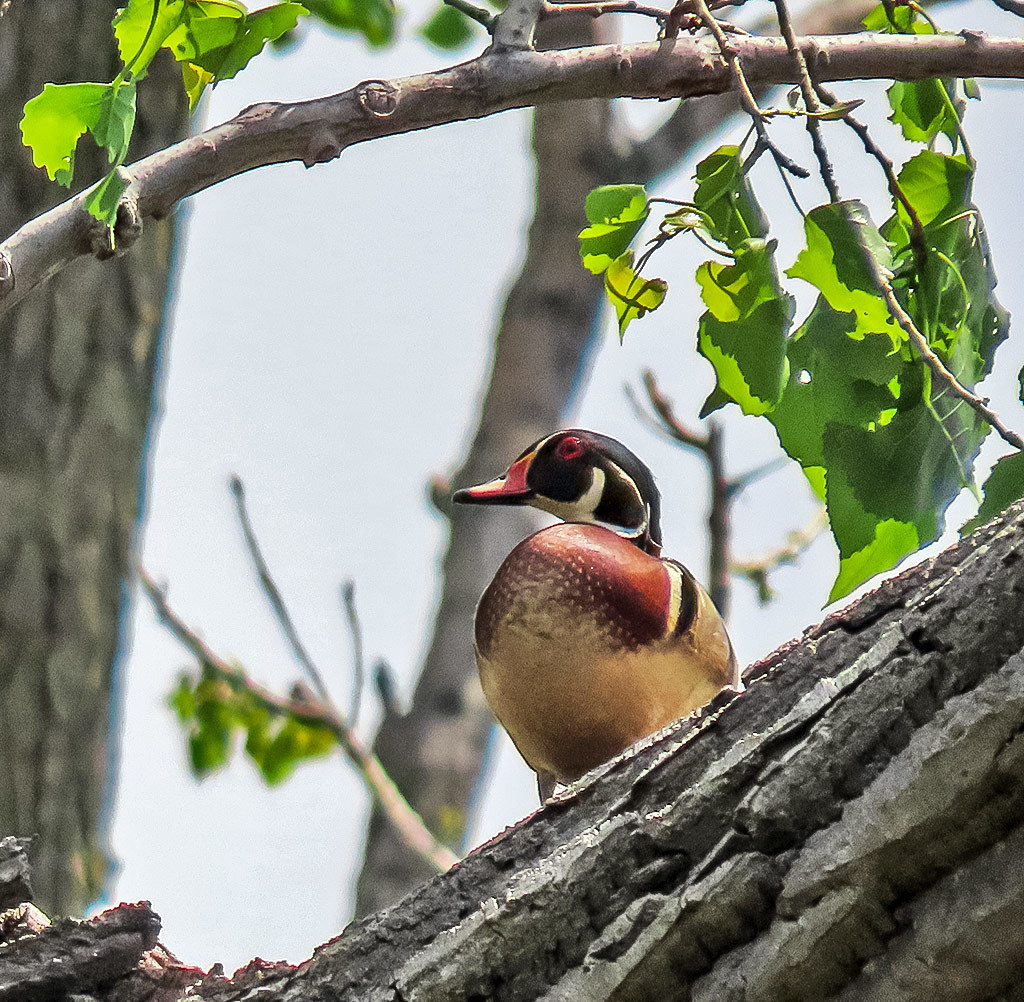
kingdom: Animalia
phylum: Chordata
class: Aves
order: Anseriformes
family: Anatidae
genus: Aix
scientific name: Aix sponsa
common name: Wood duck
